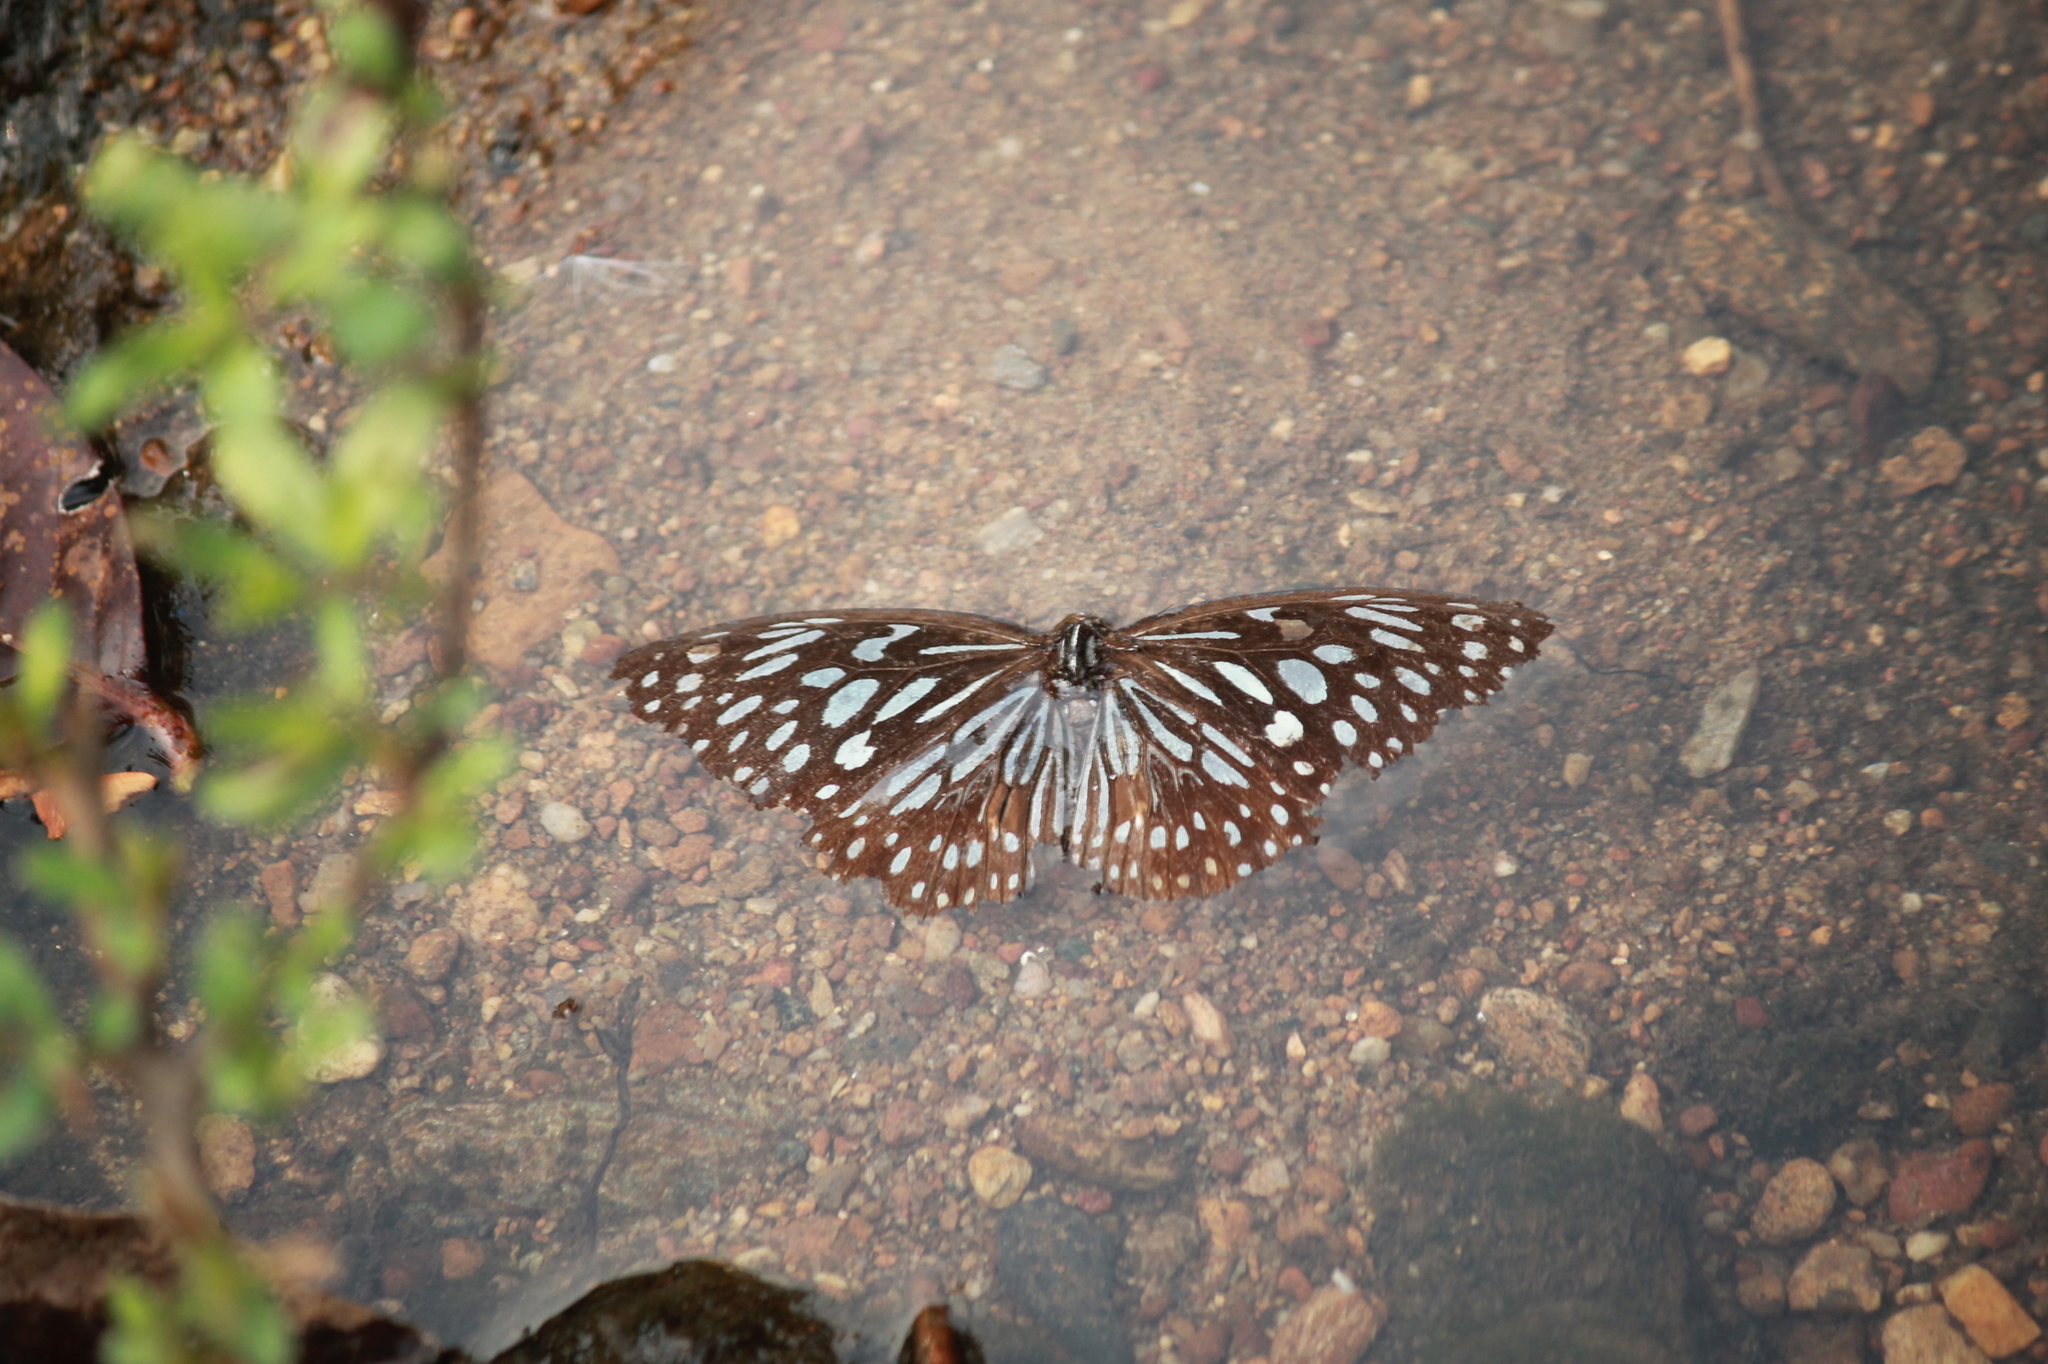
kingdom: Animalia
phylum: Arthropoda
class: Insecta
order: Lepidoptera
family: Nymphalidae
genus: Tirumala
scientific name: Tirumala septentrionis
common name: Dark blue tiger butterfly
